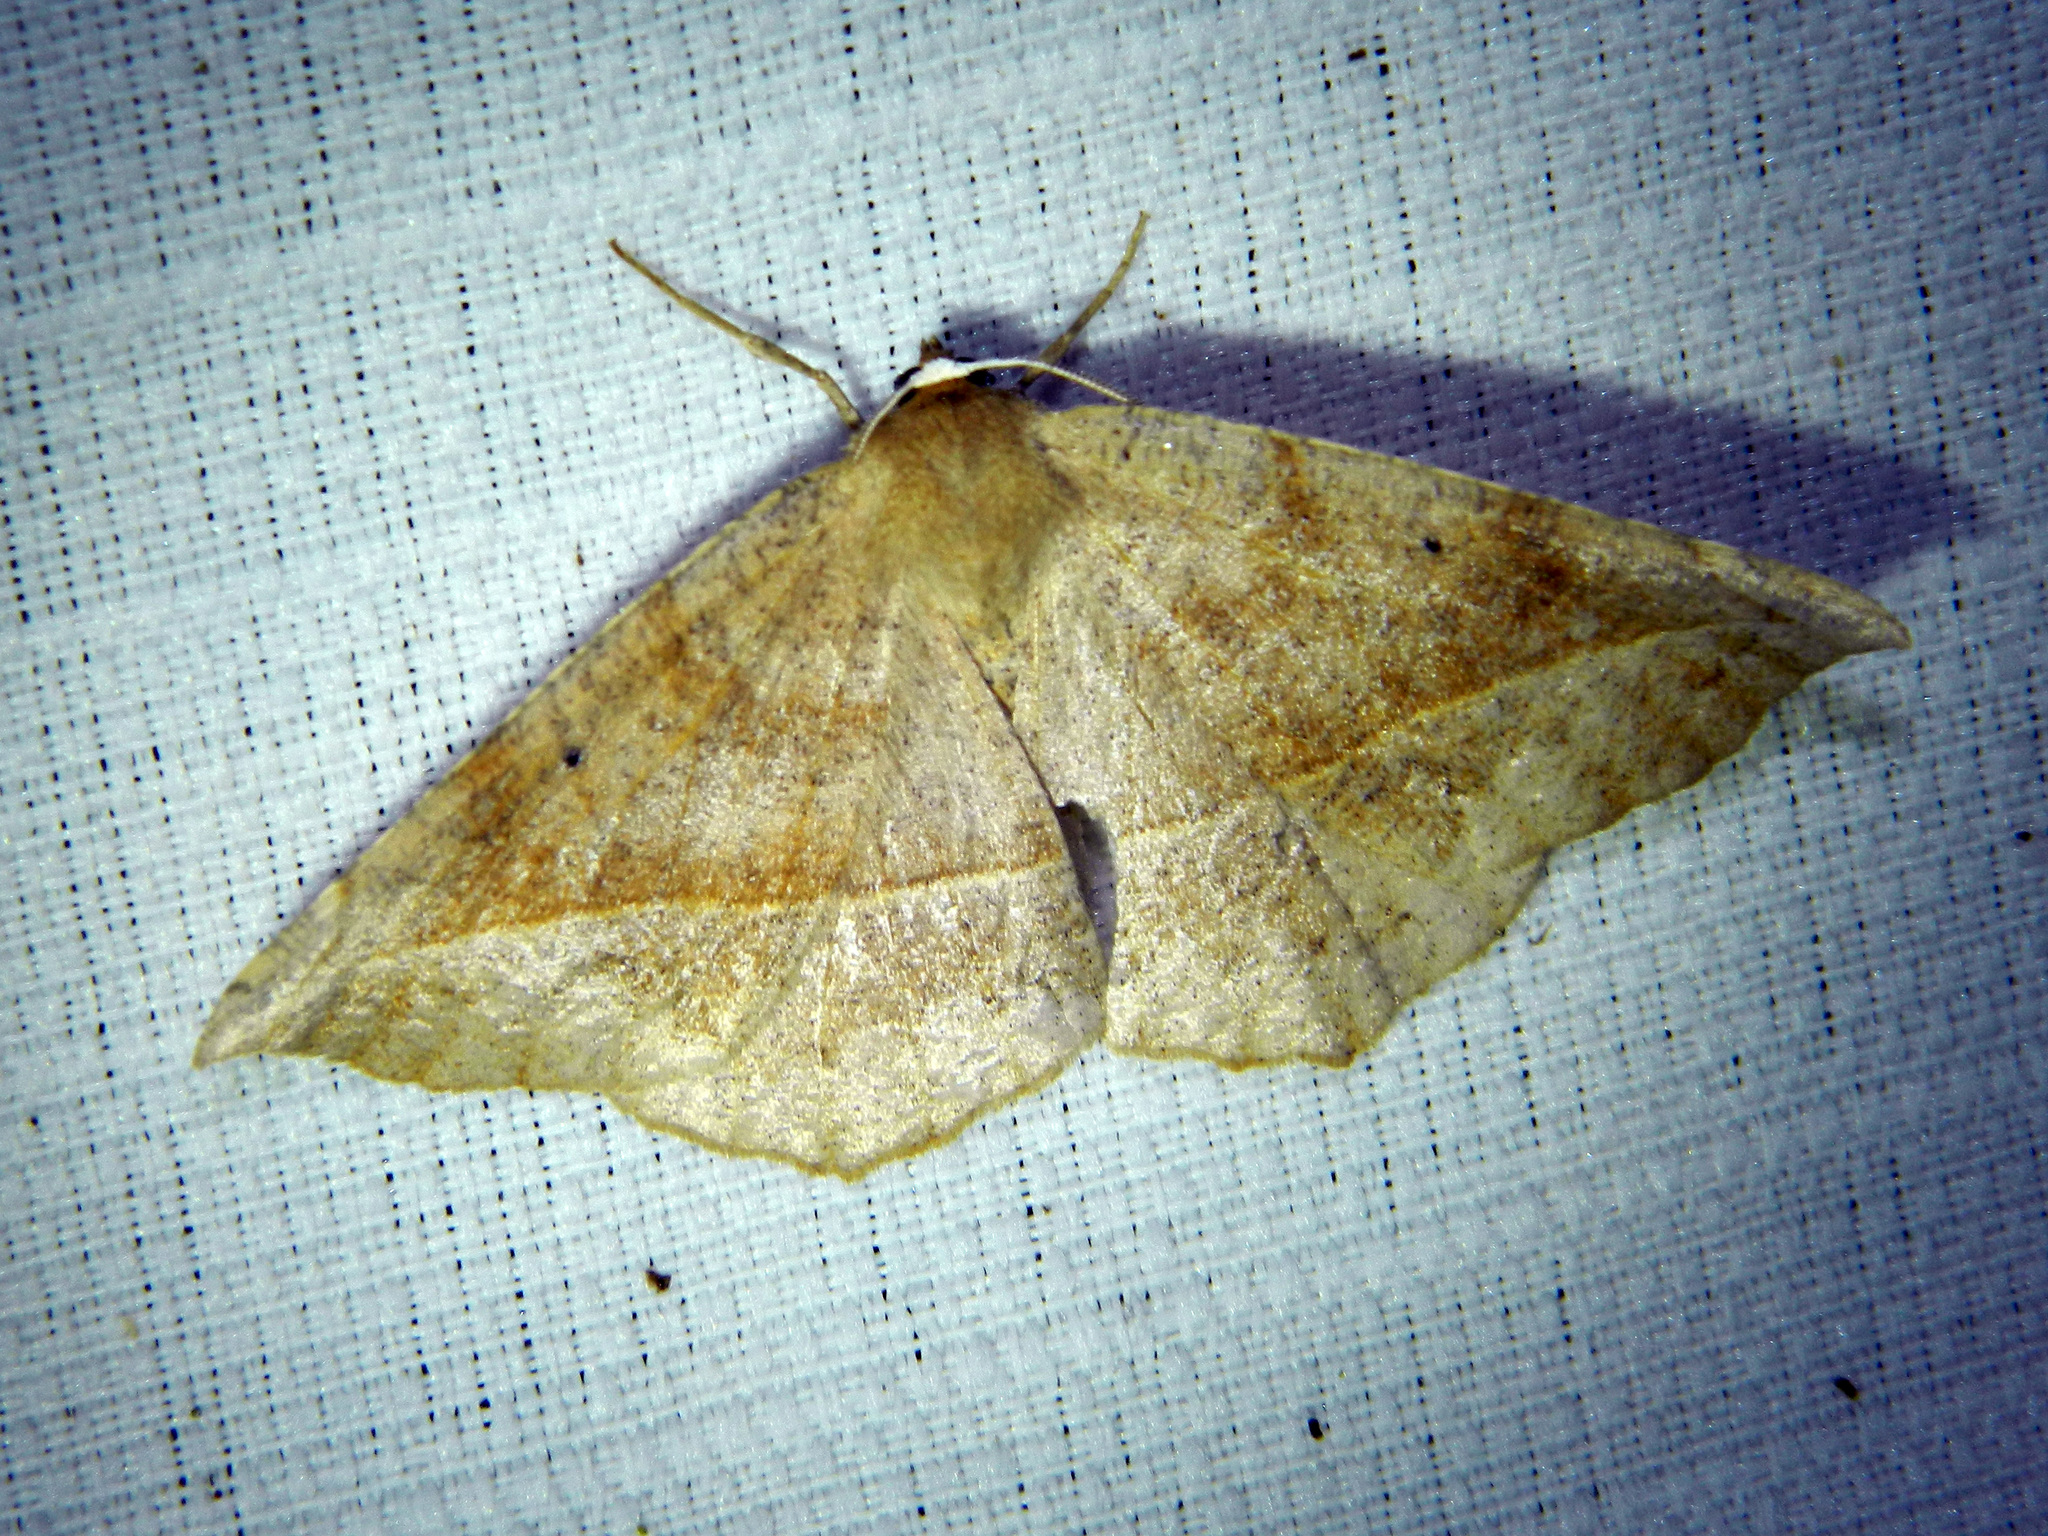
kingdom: Animalia
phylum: Arthropoda
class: Insecta
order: Lepidoptera
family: Geometridae
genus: Eutrapela
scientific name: Eutrapela clemataria
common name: Curved-toothed geometer
